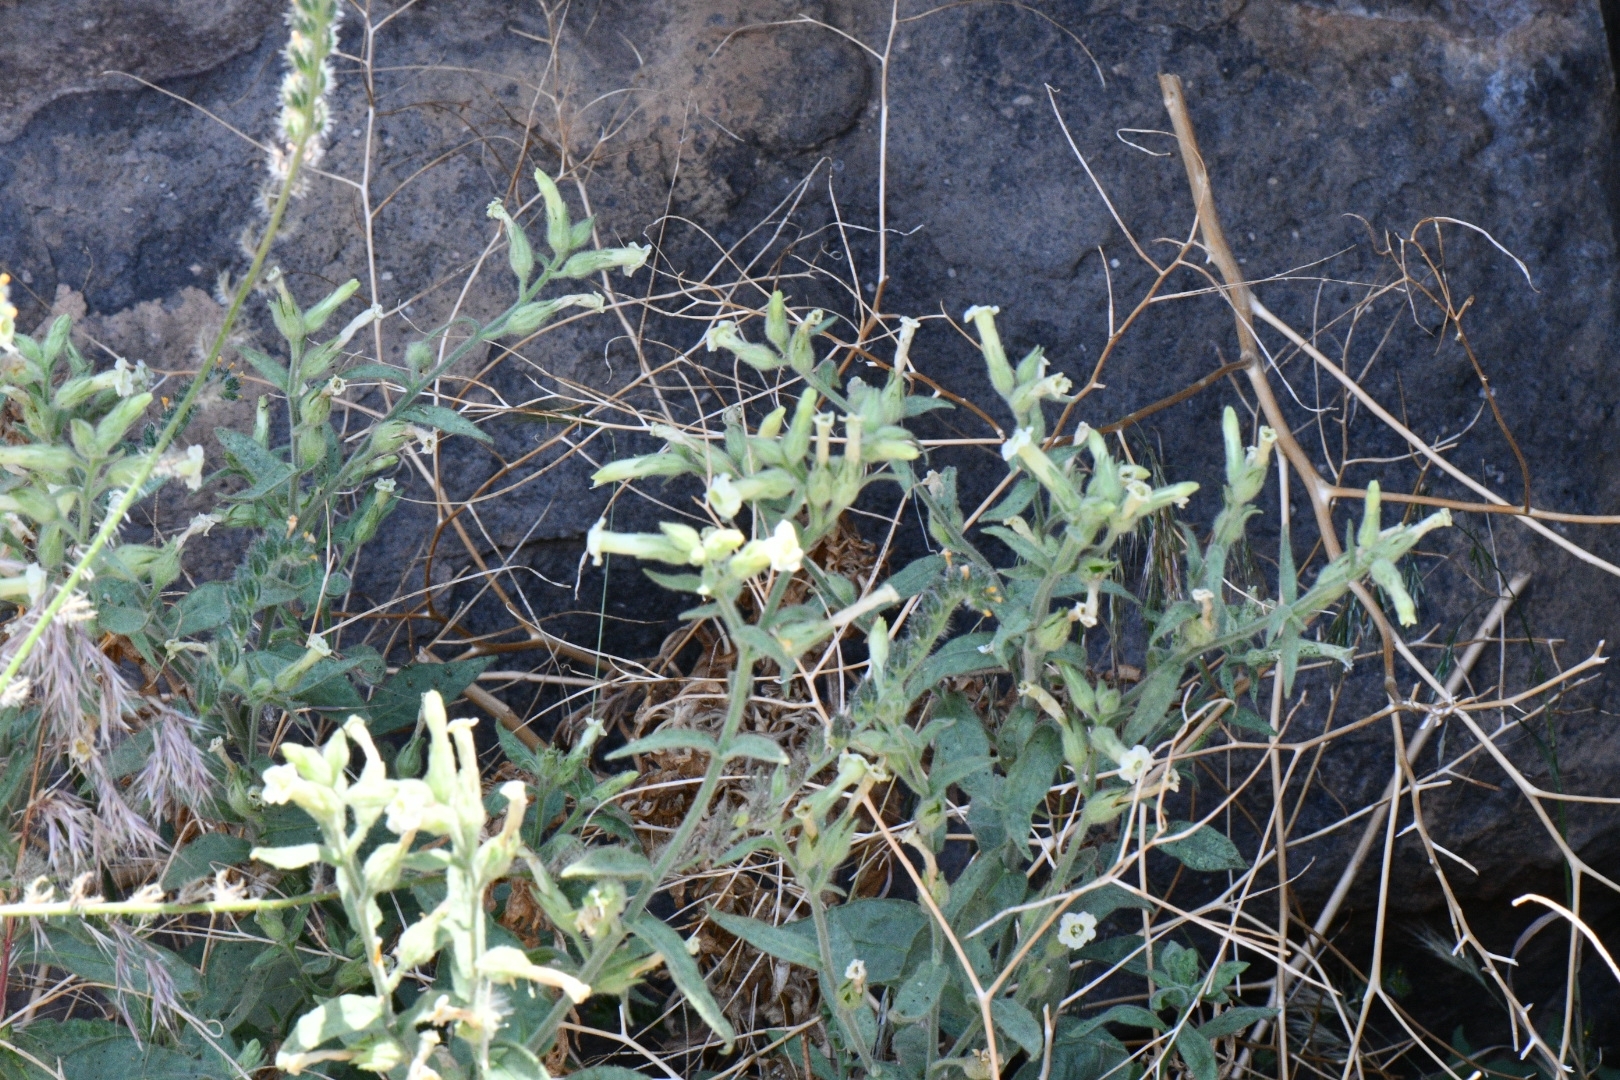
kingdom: Plantae
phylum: Tracheophyta
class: Magnoliopsida
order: Solanales
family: Solanaceae
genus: Nicotiana
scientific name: Nicotiana obtusifolia
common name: Desert tobacco
